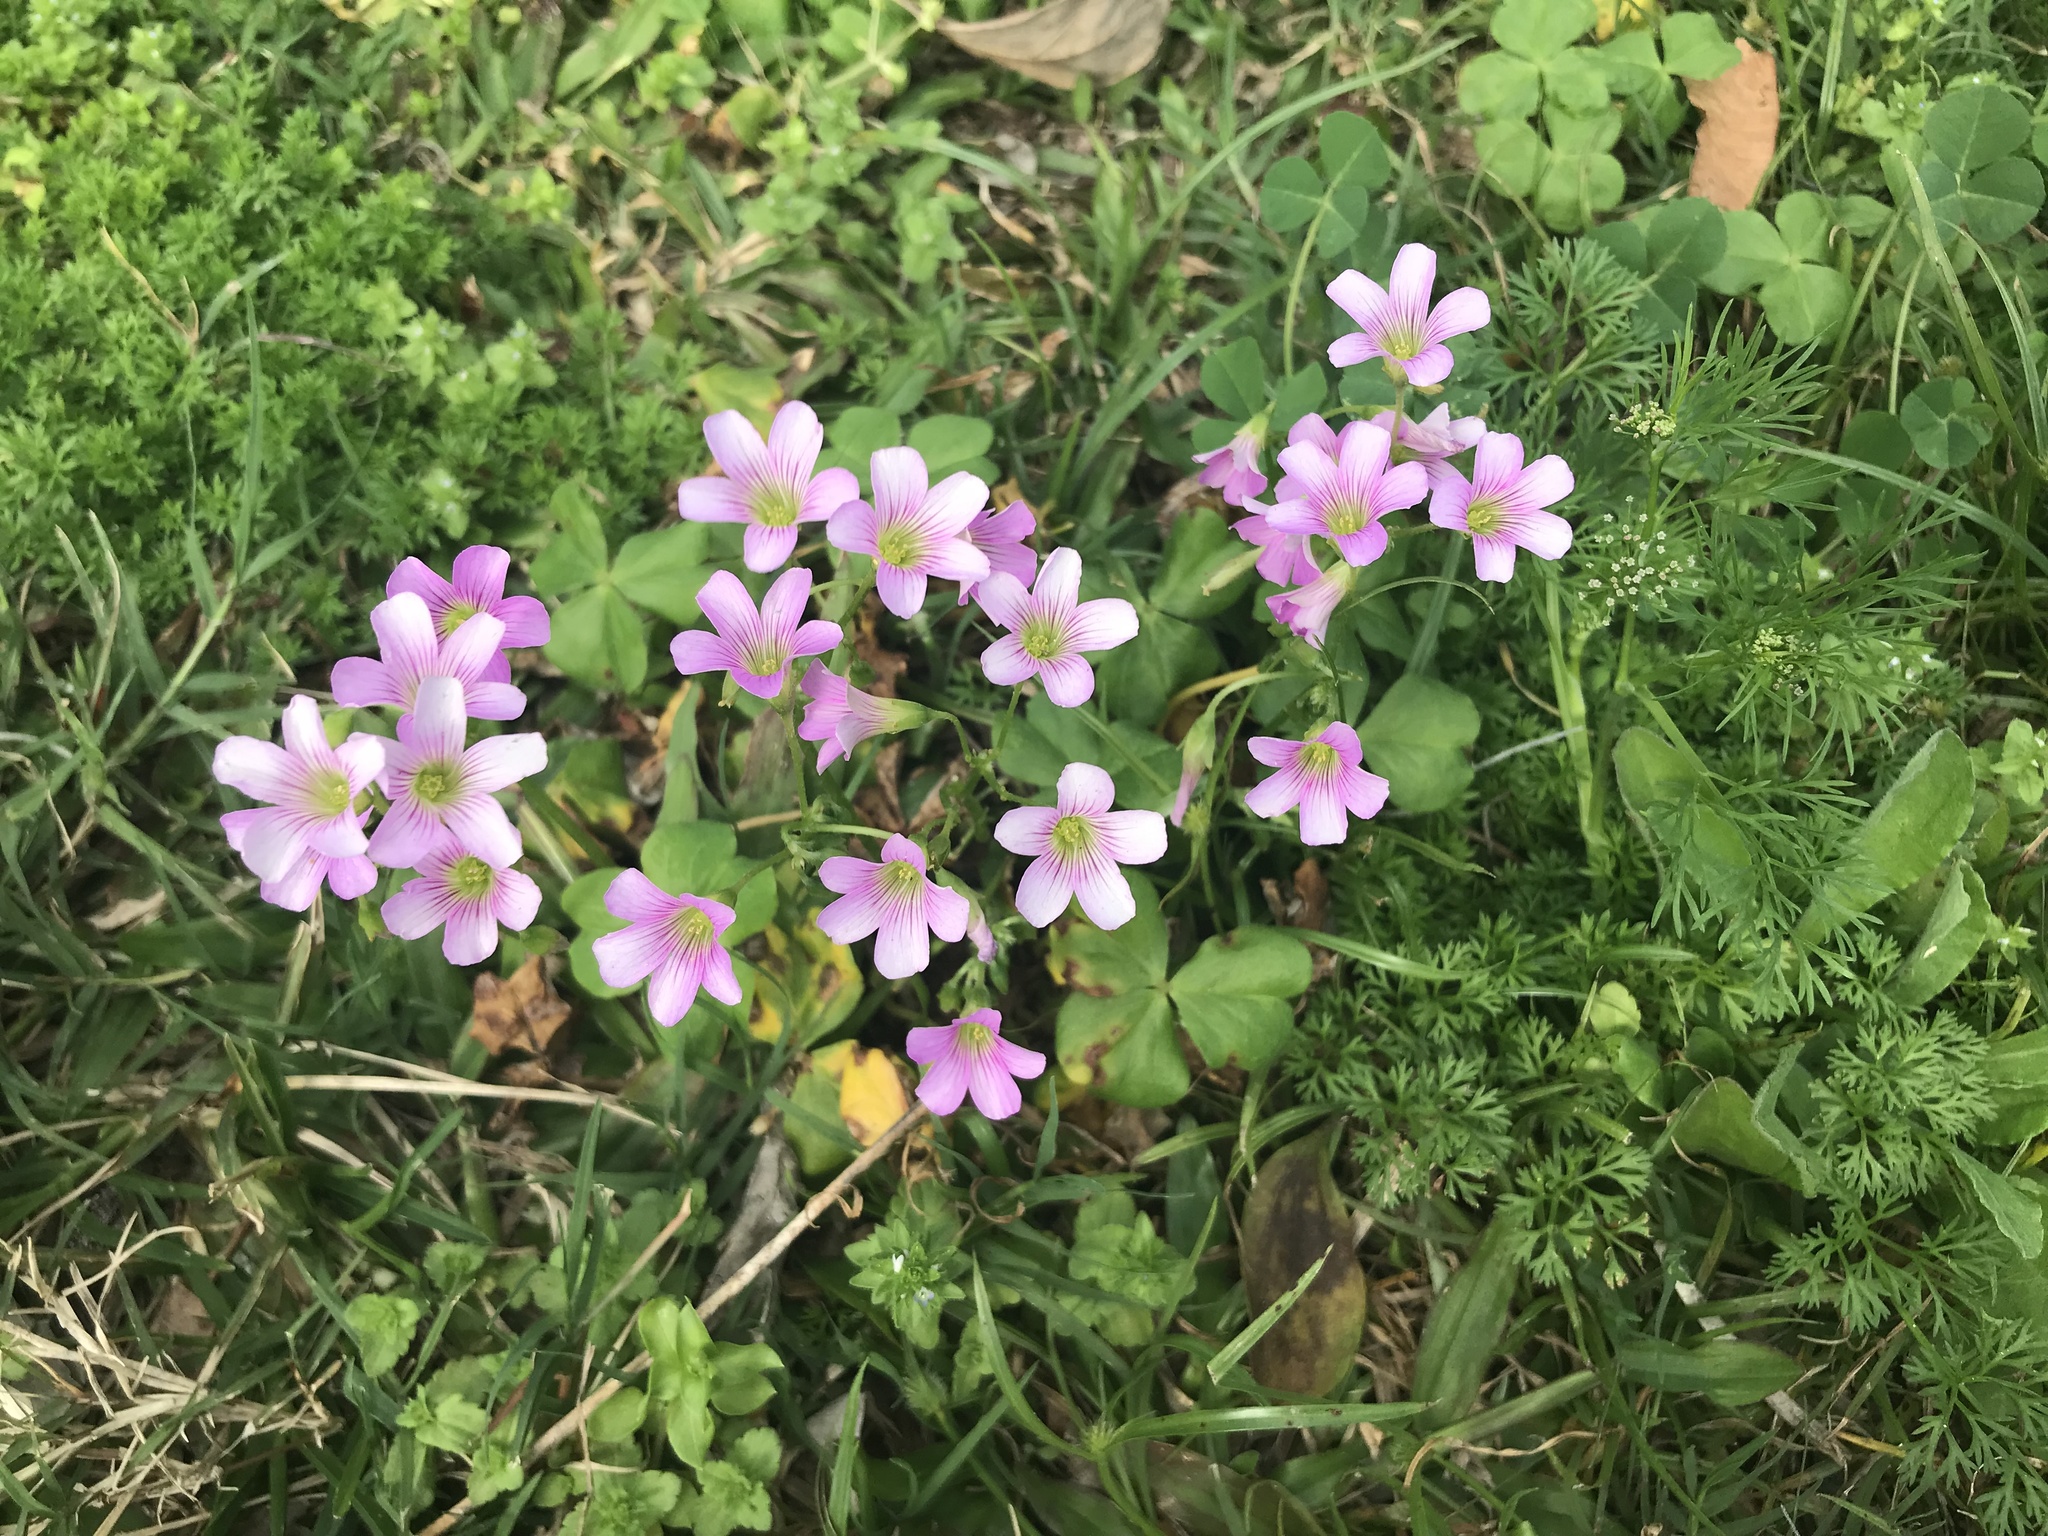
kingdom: Plantae
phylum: Tracheophyta
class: Magnoliopsida
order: Oxalidales
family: Oxalidaceae
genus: Oxalis
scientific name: Oxalis debilis
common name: Large-flowered pink-sorrel
